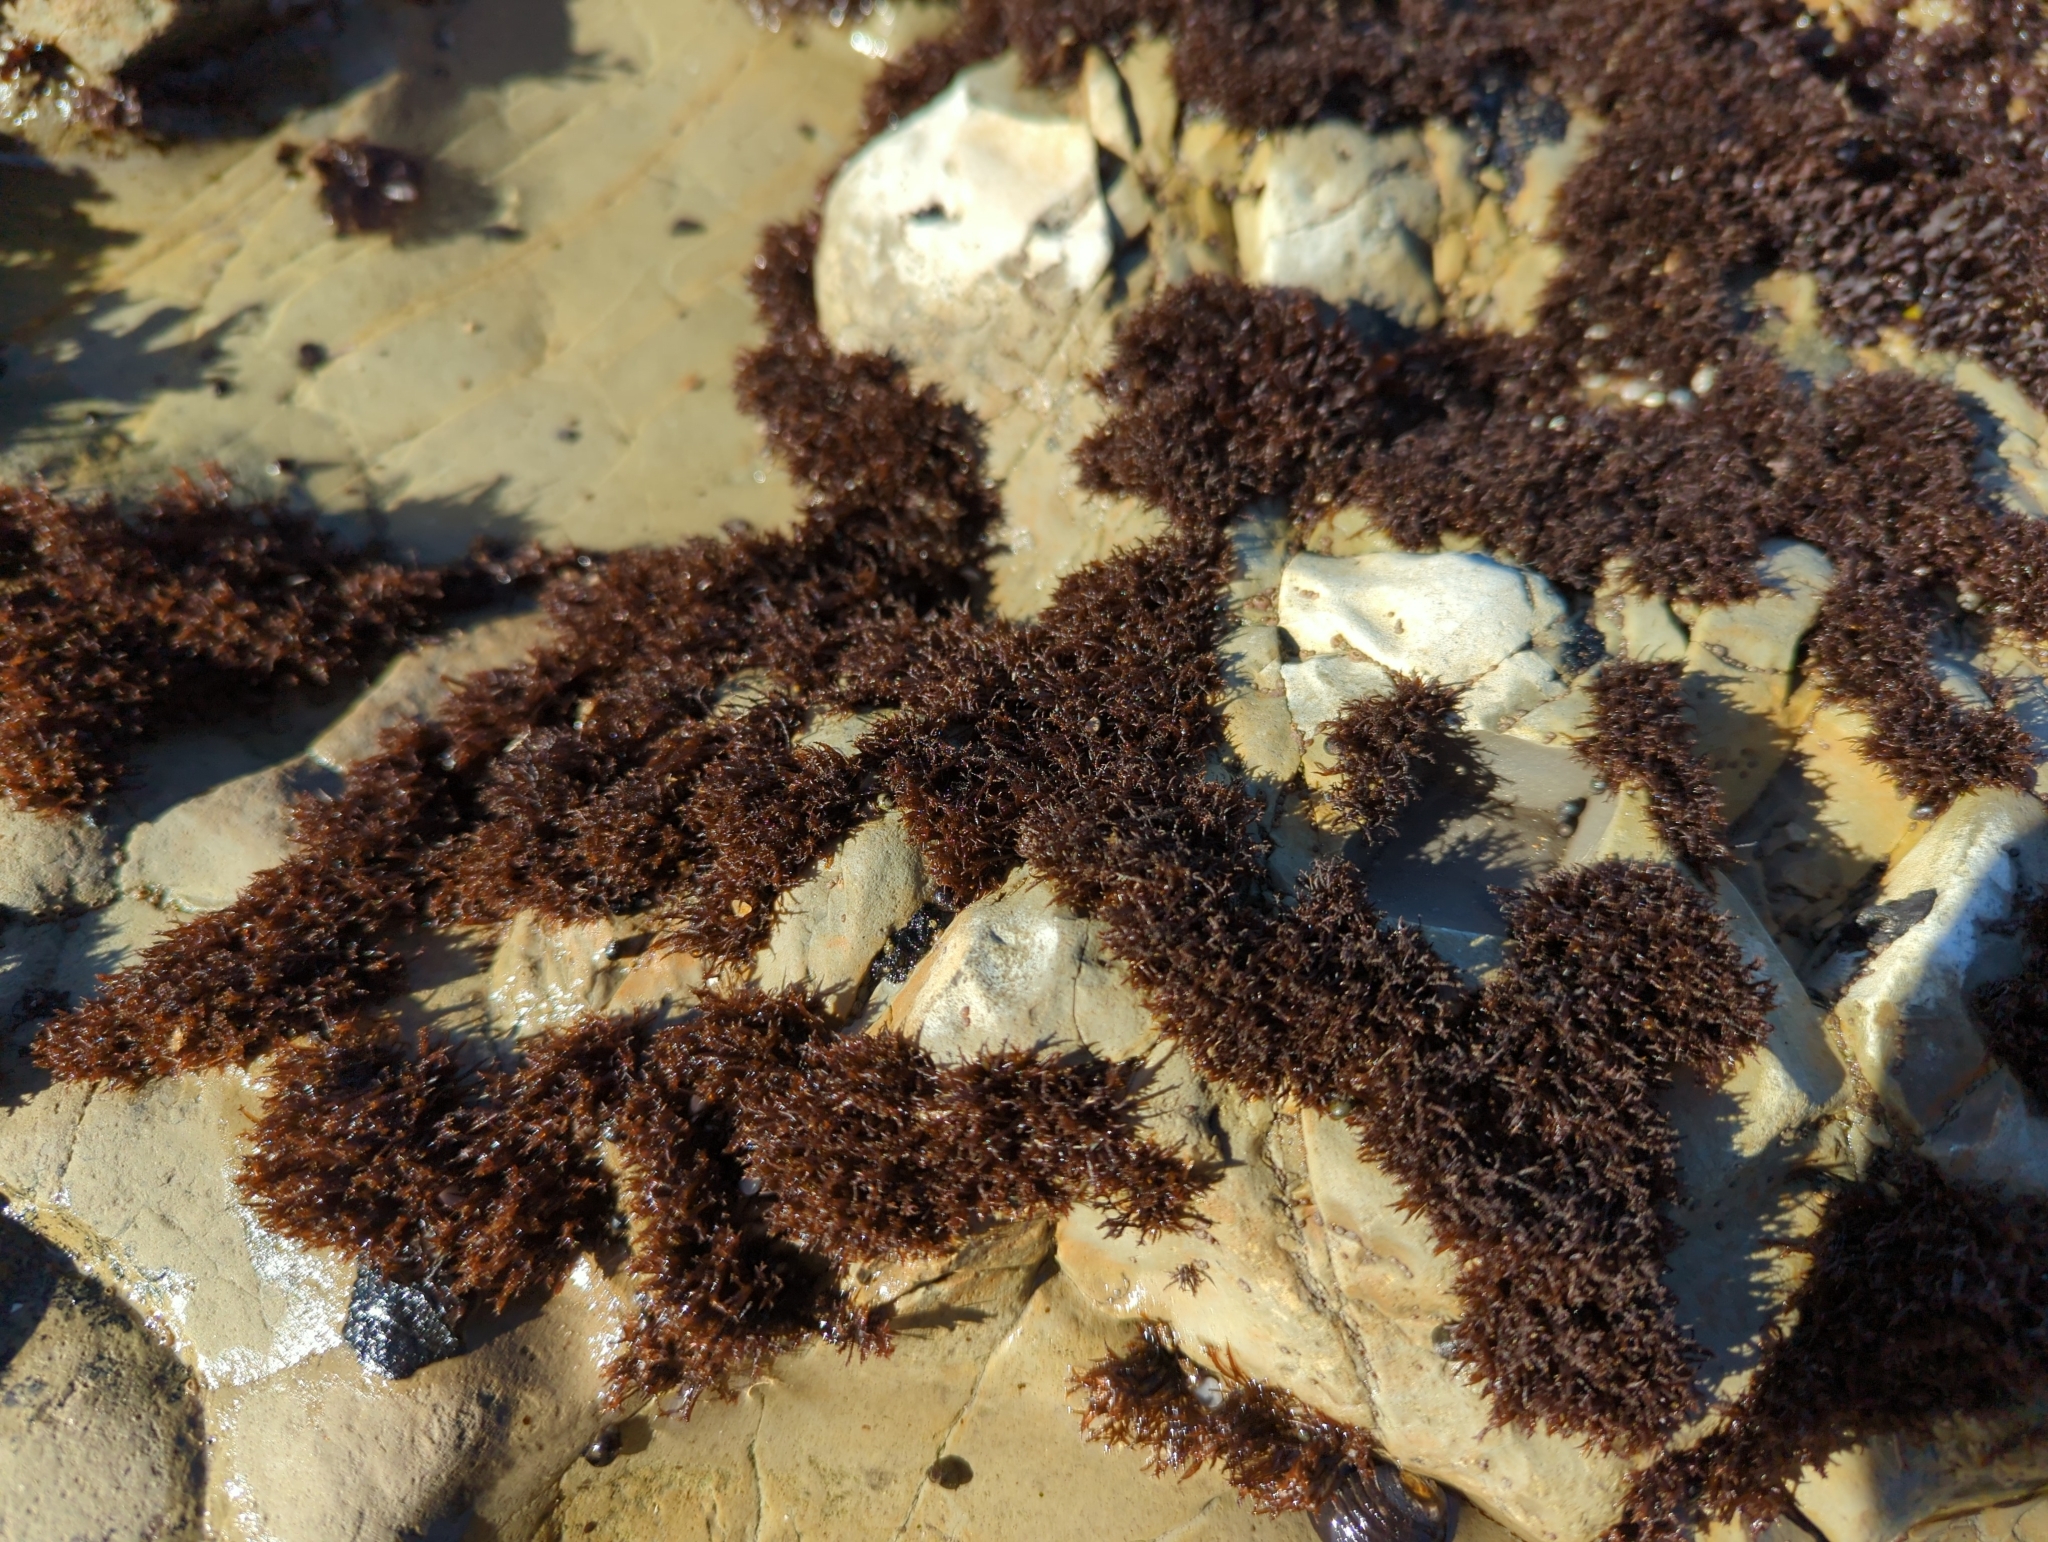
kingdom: Plantae
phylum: Rhodophyta
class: Florideophyceae
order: Gigartinales
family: Endocladiaceae
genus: Endocladia
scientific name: Endocladia muricata
